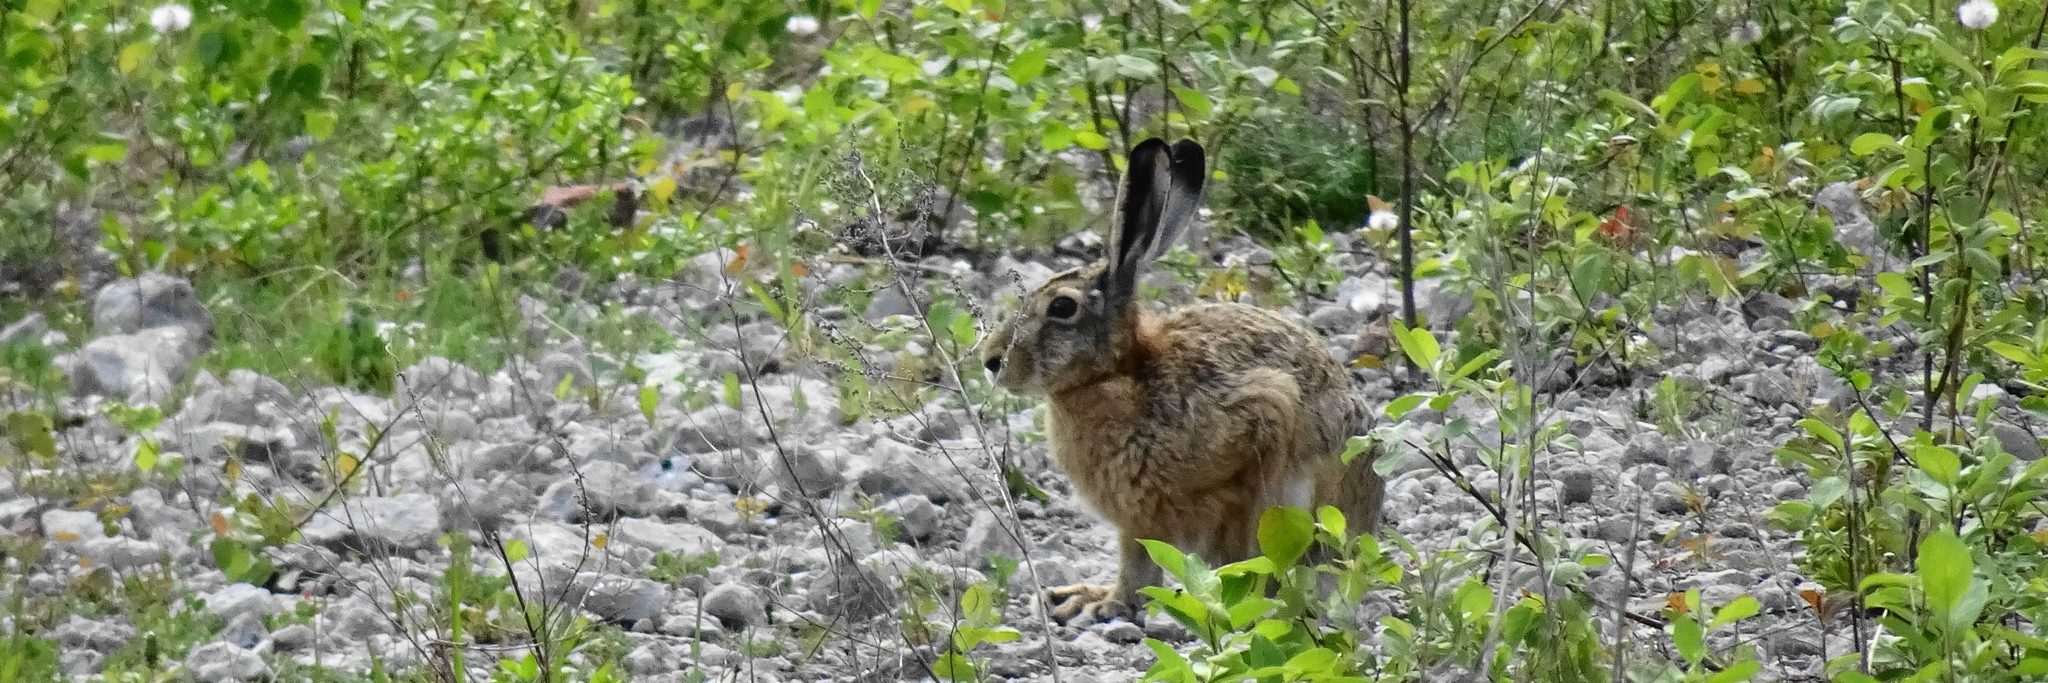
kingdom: Animalia
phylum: Chordata
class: Mammalia
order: Lagomorpha
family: Leporidae
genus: Lepus
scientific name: Lepus europaeus
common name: European hare
